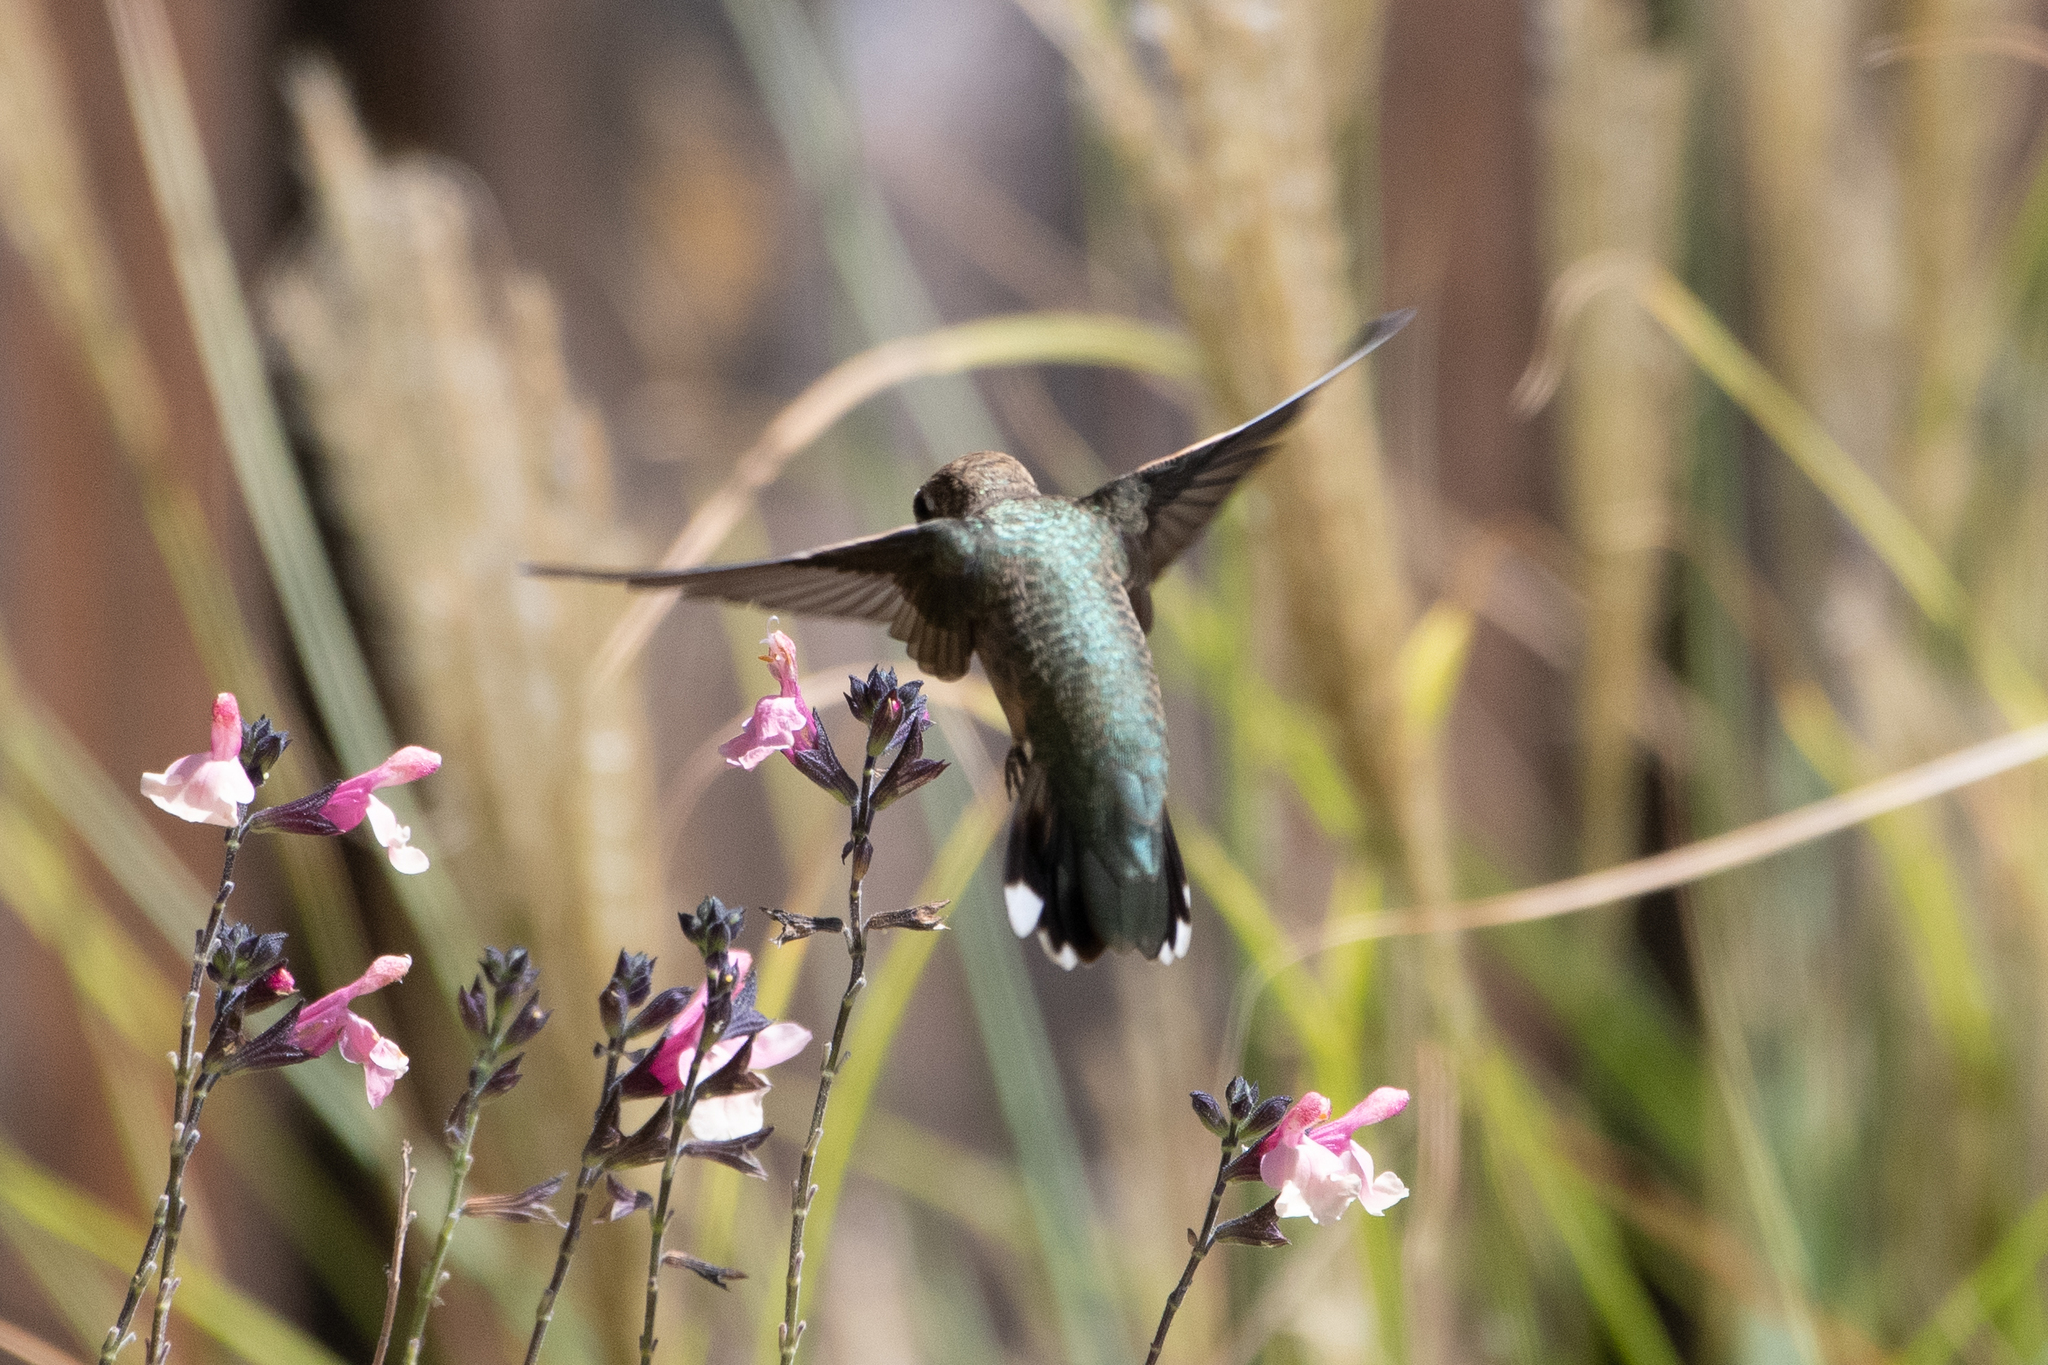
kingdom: Animalia
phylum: Chordata
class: Aves
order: Apodiformes
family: Trochilidae
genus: Calypte
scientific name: Calypte anna
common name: Anna's hummingbird
